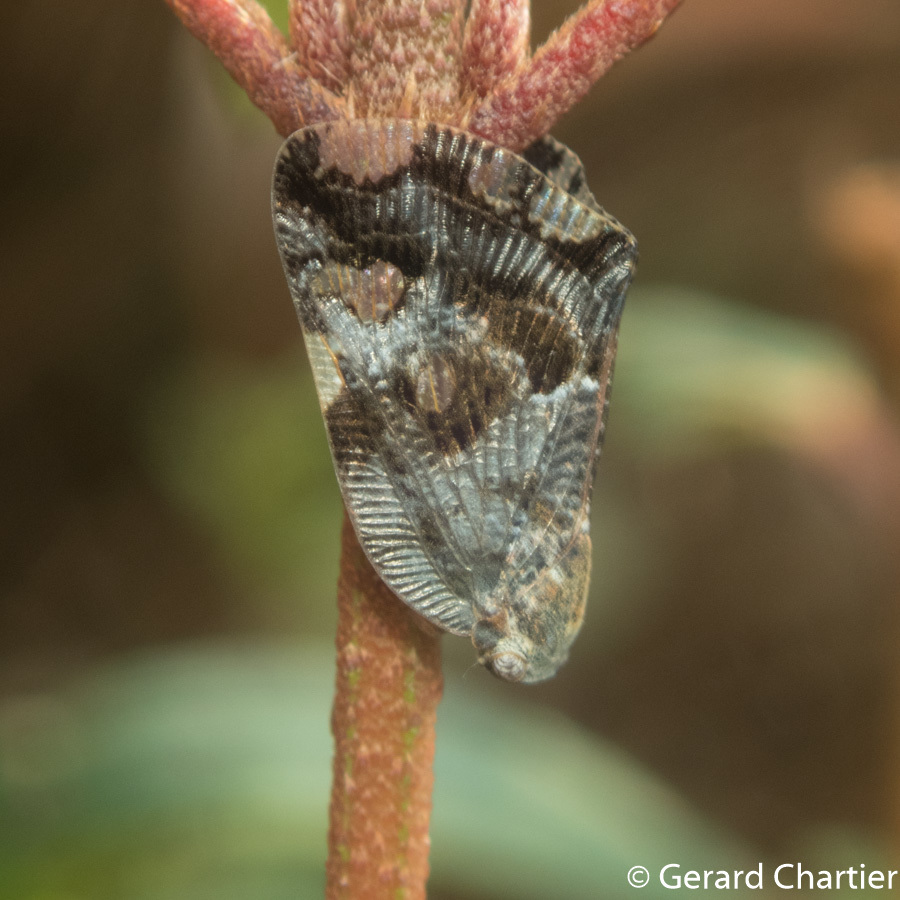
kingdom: Animalia
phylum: Arthropoda
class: Insecta
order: Hemiptera
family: Ricaniidae
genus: Ricania
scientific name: Ricania speculum
